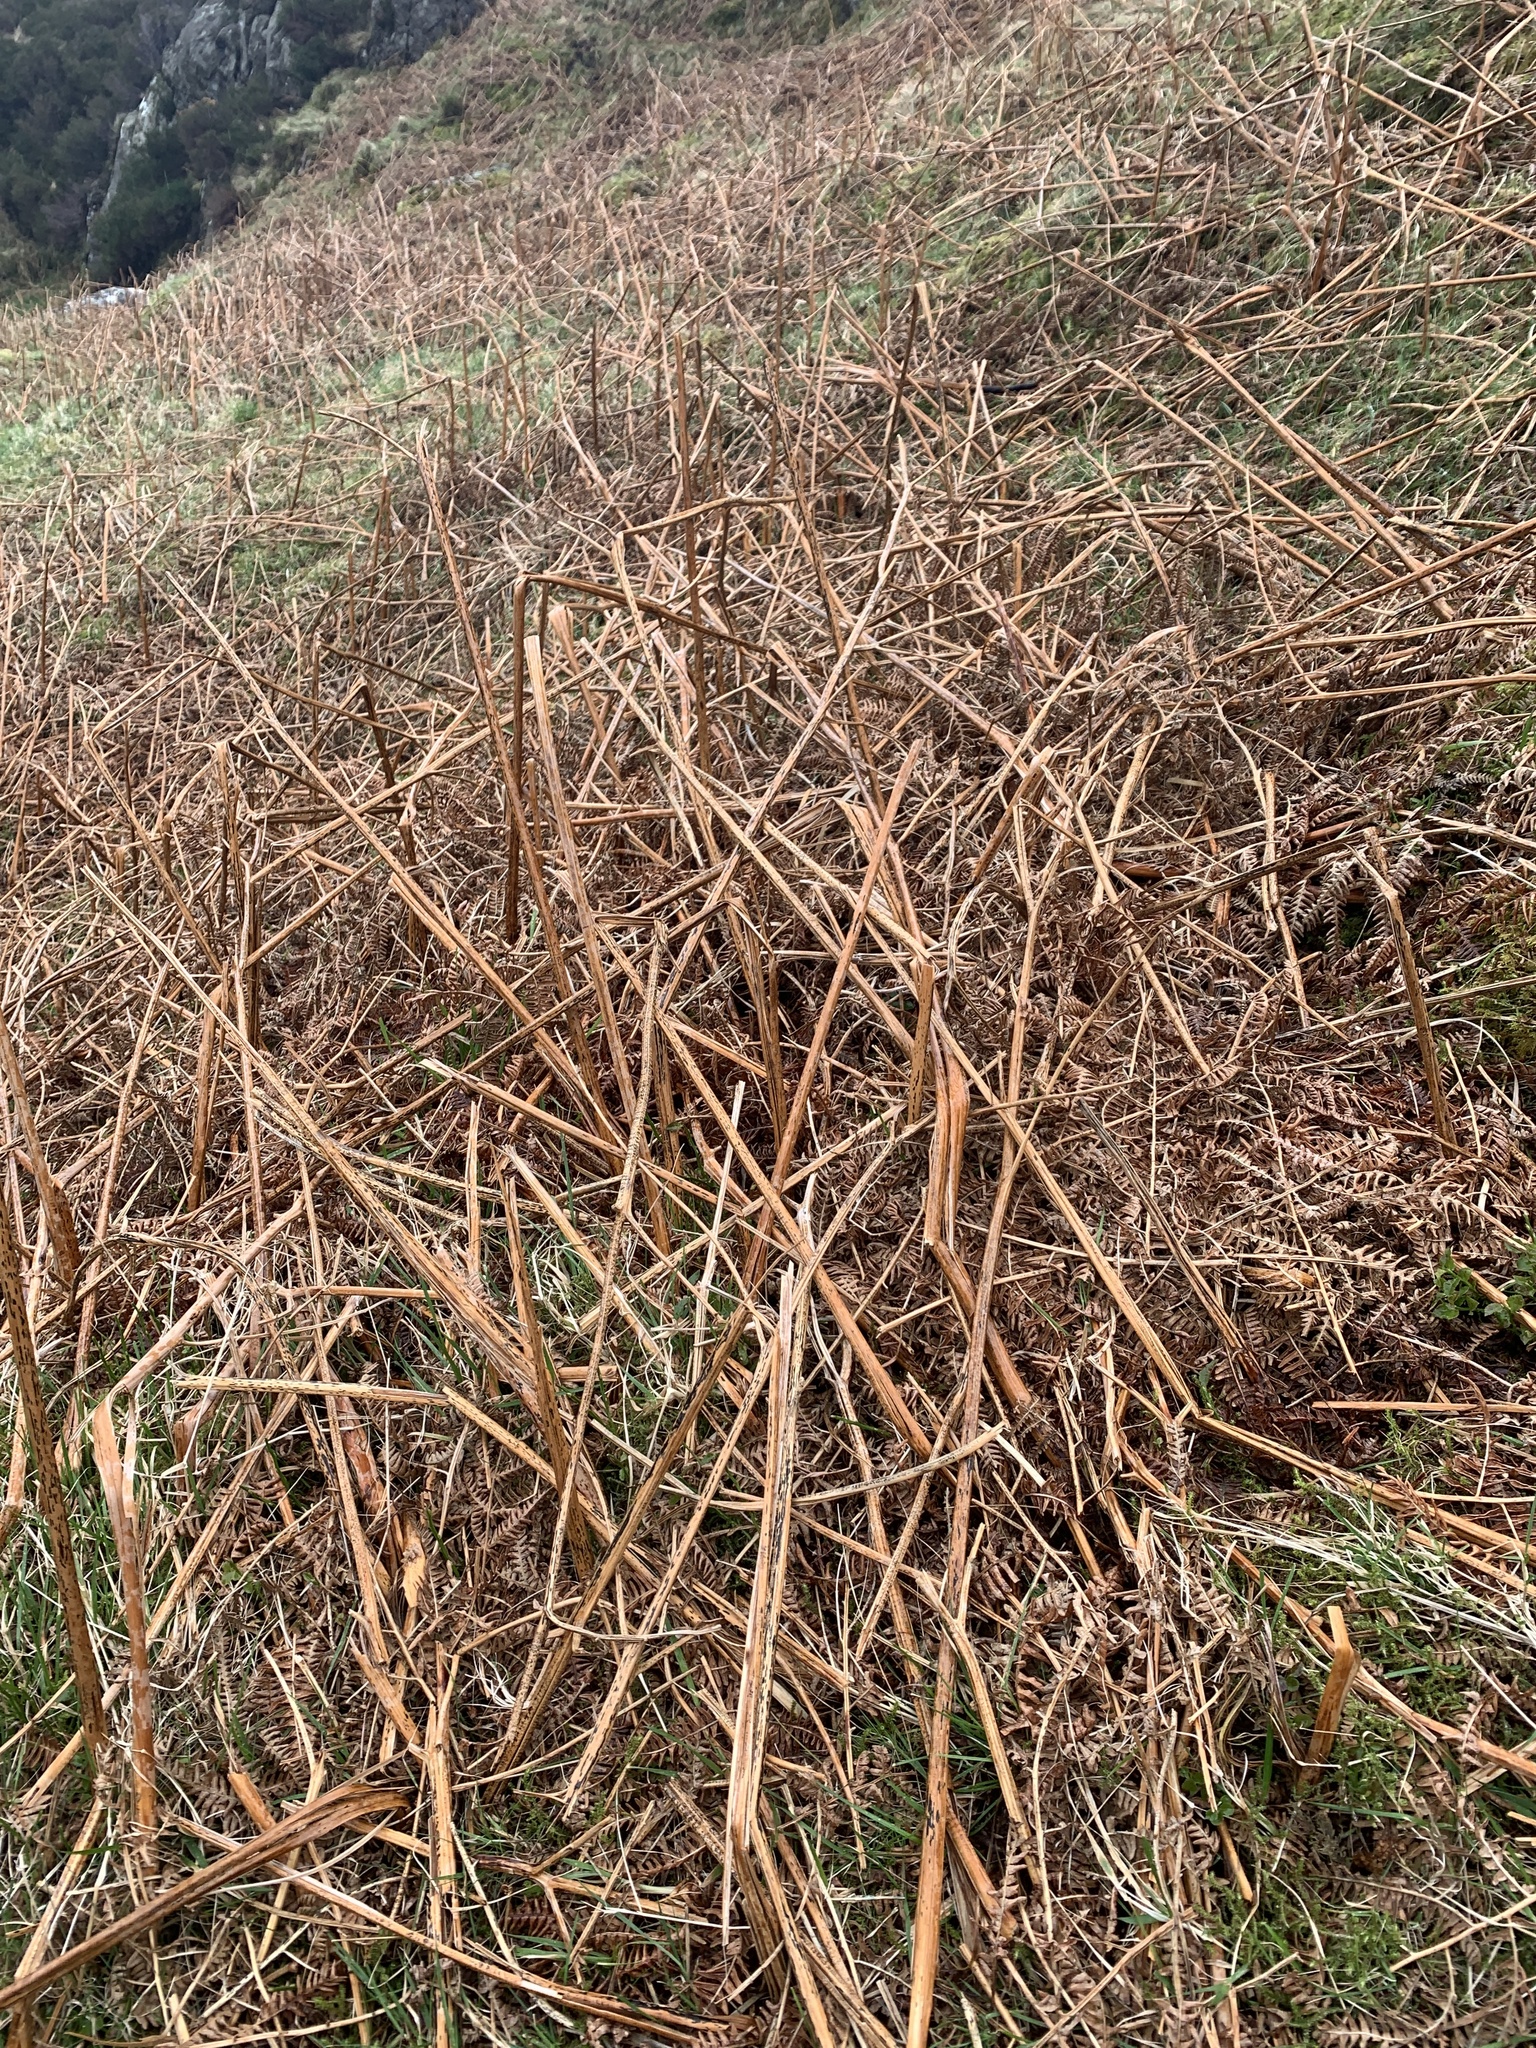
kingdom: Plantae
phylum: Tracheophyta
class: Polypodiopsida
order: Polypodiales
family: Dennstaedtiaceae
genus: Pteridium
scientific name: Pteridium aquilinum
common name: Bracken
